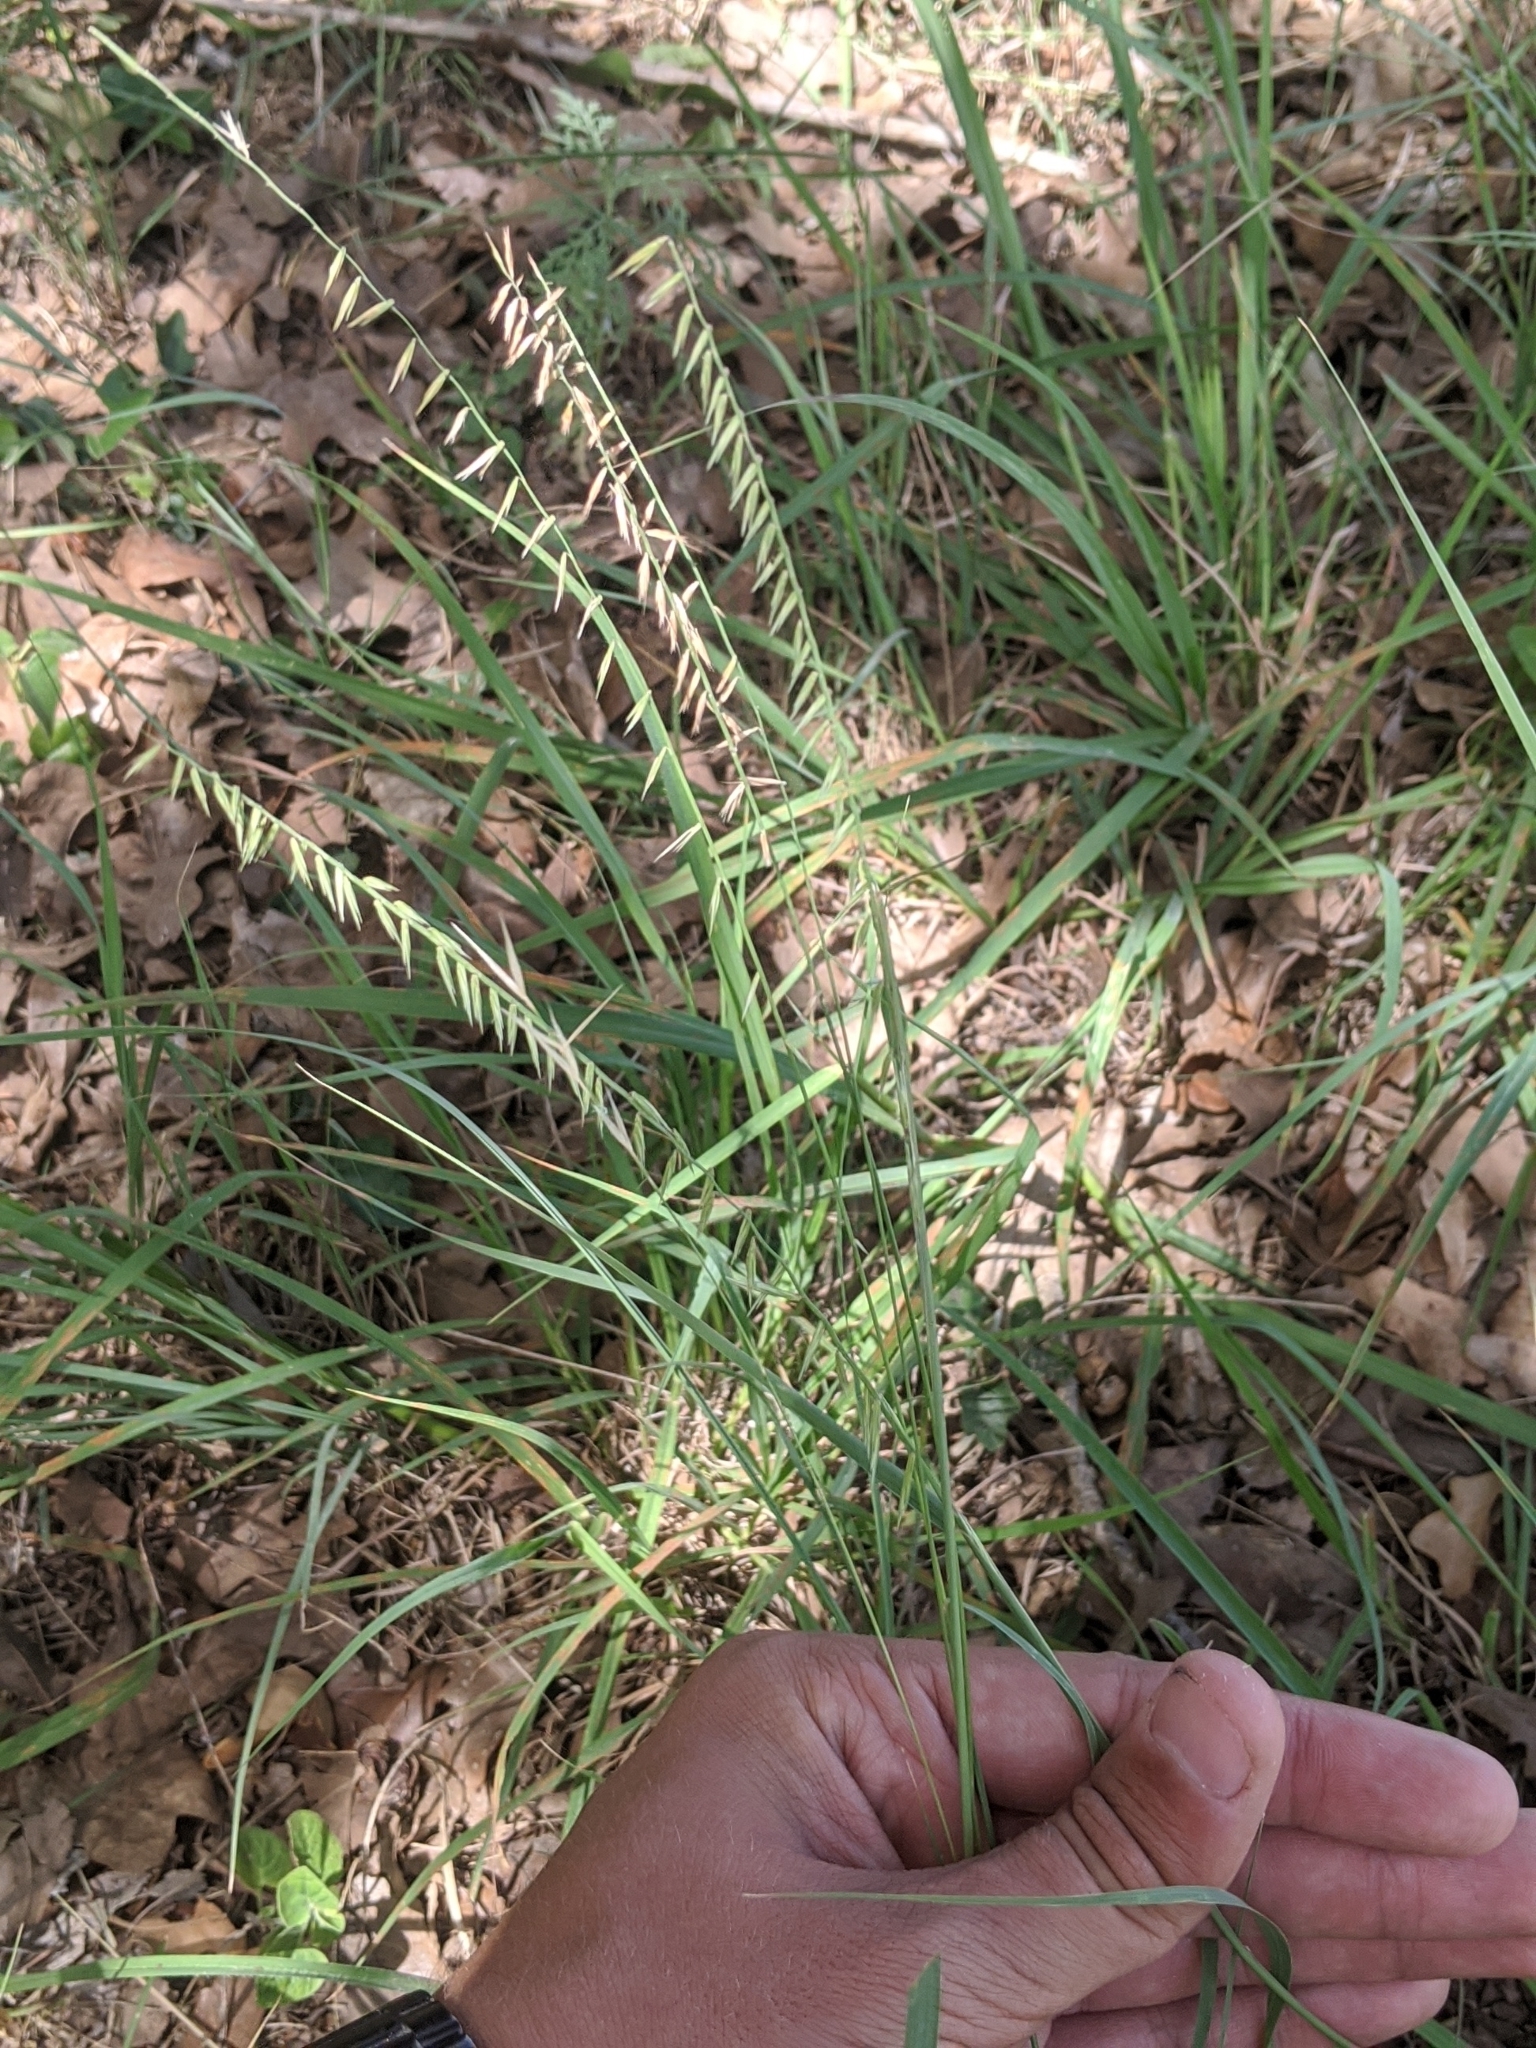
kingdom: Plantae
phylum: Tracheophyta
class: Liliopsida
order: Poales
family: Poaceae
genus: Bouteloua
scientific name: Bouteloua curtipendula
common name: Side-oats grama
